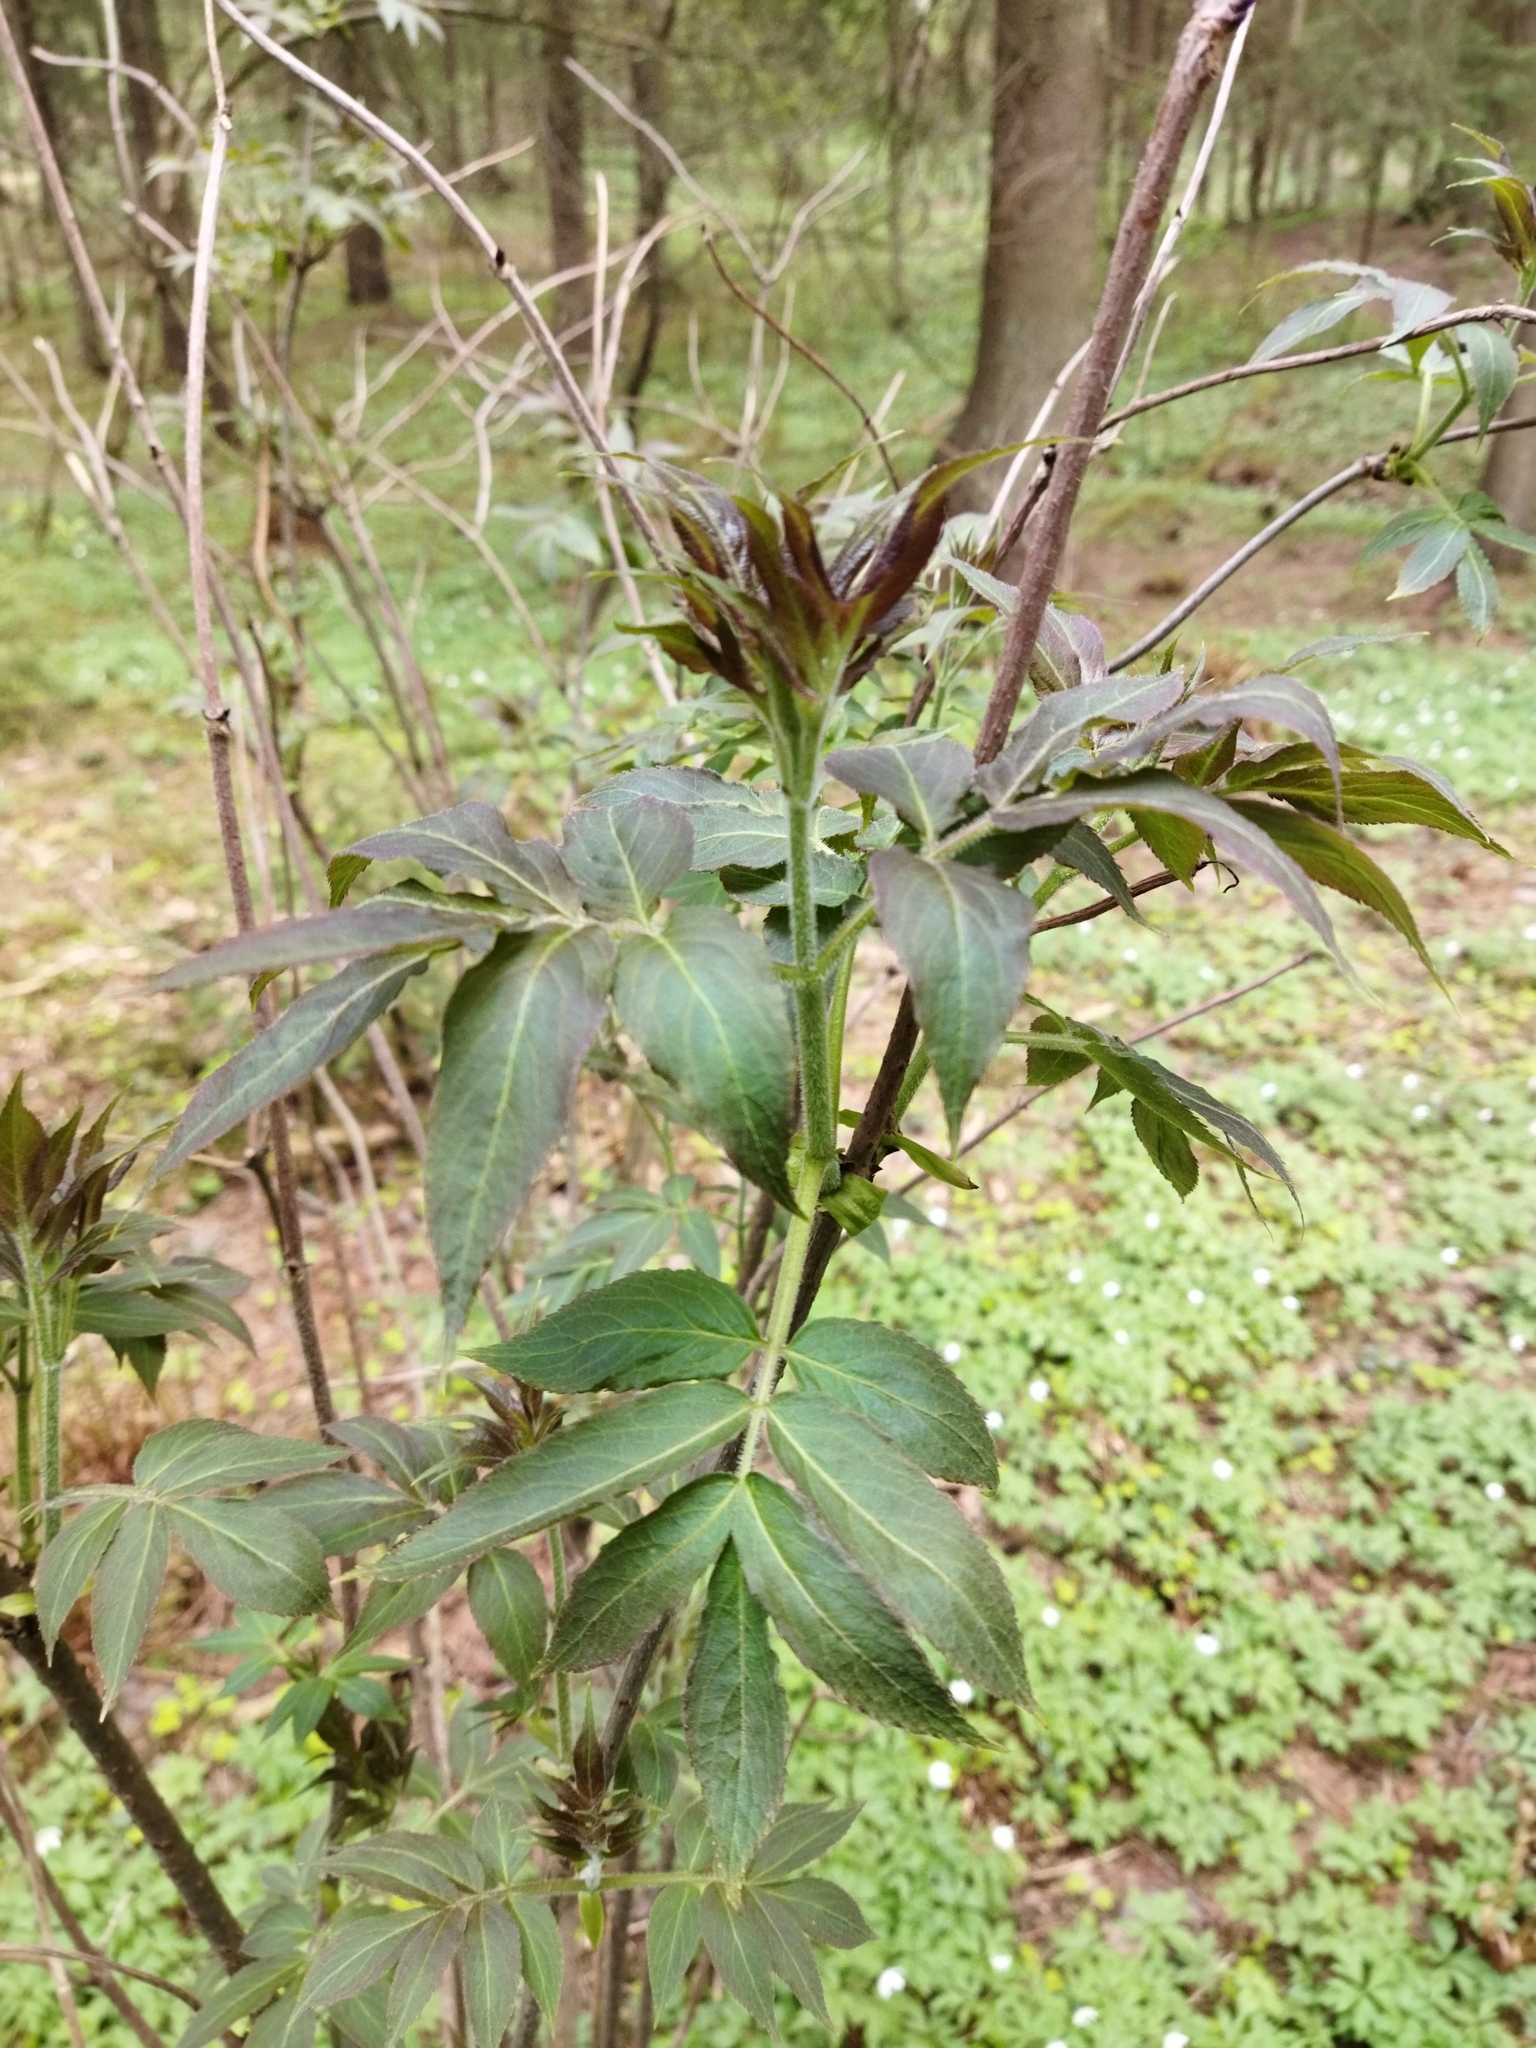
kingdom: Plantae
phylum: Tracheophyta
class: Magnoliopsida
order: Dipsacales
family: Viburnaceae
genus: Sambucus
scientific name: Sambucus racemosa
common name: Red-berried elder
